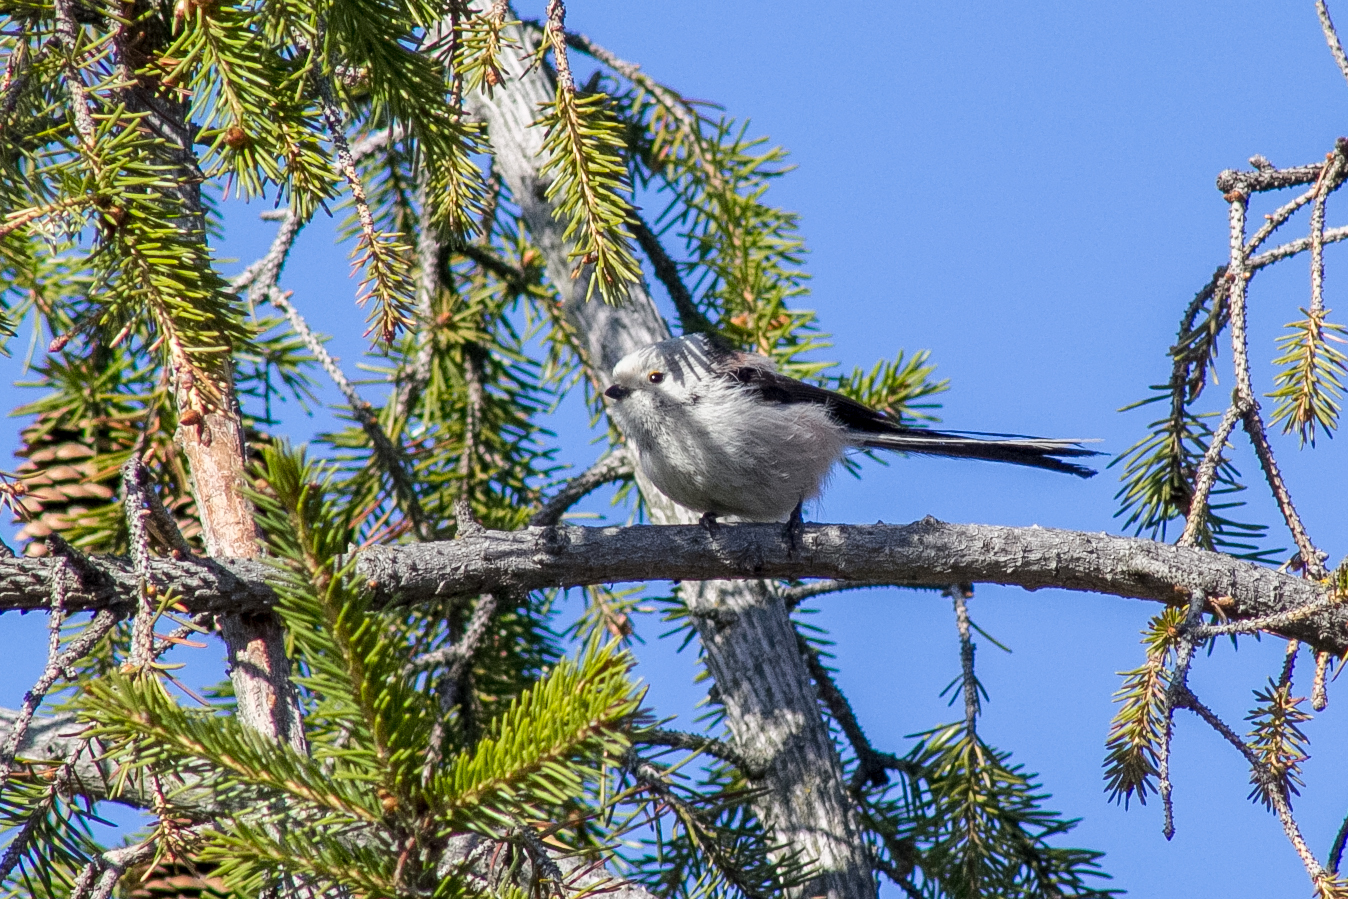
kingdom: Animalia
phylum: Chordata
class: Aves
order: Passeriformes
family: Aegithalidae
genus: Aegithalos
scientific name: Aegithalos caudatus
